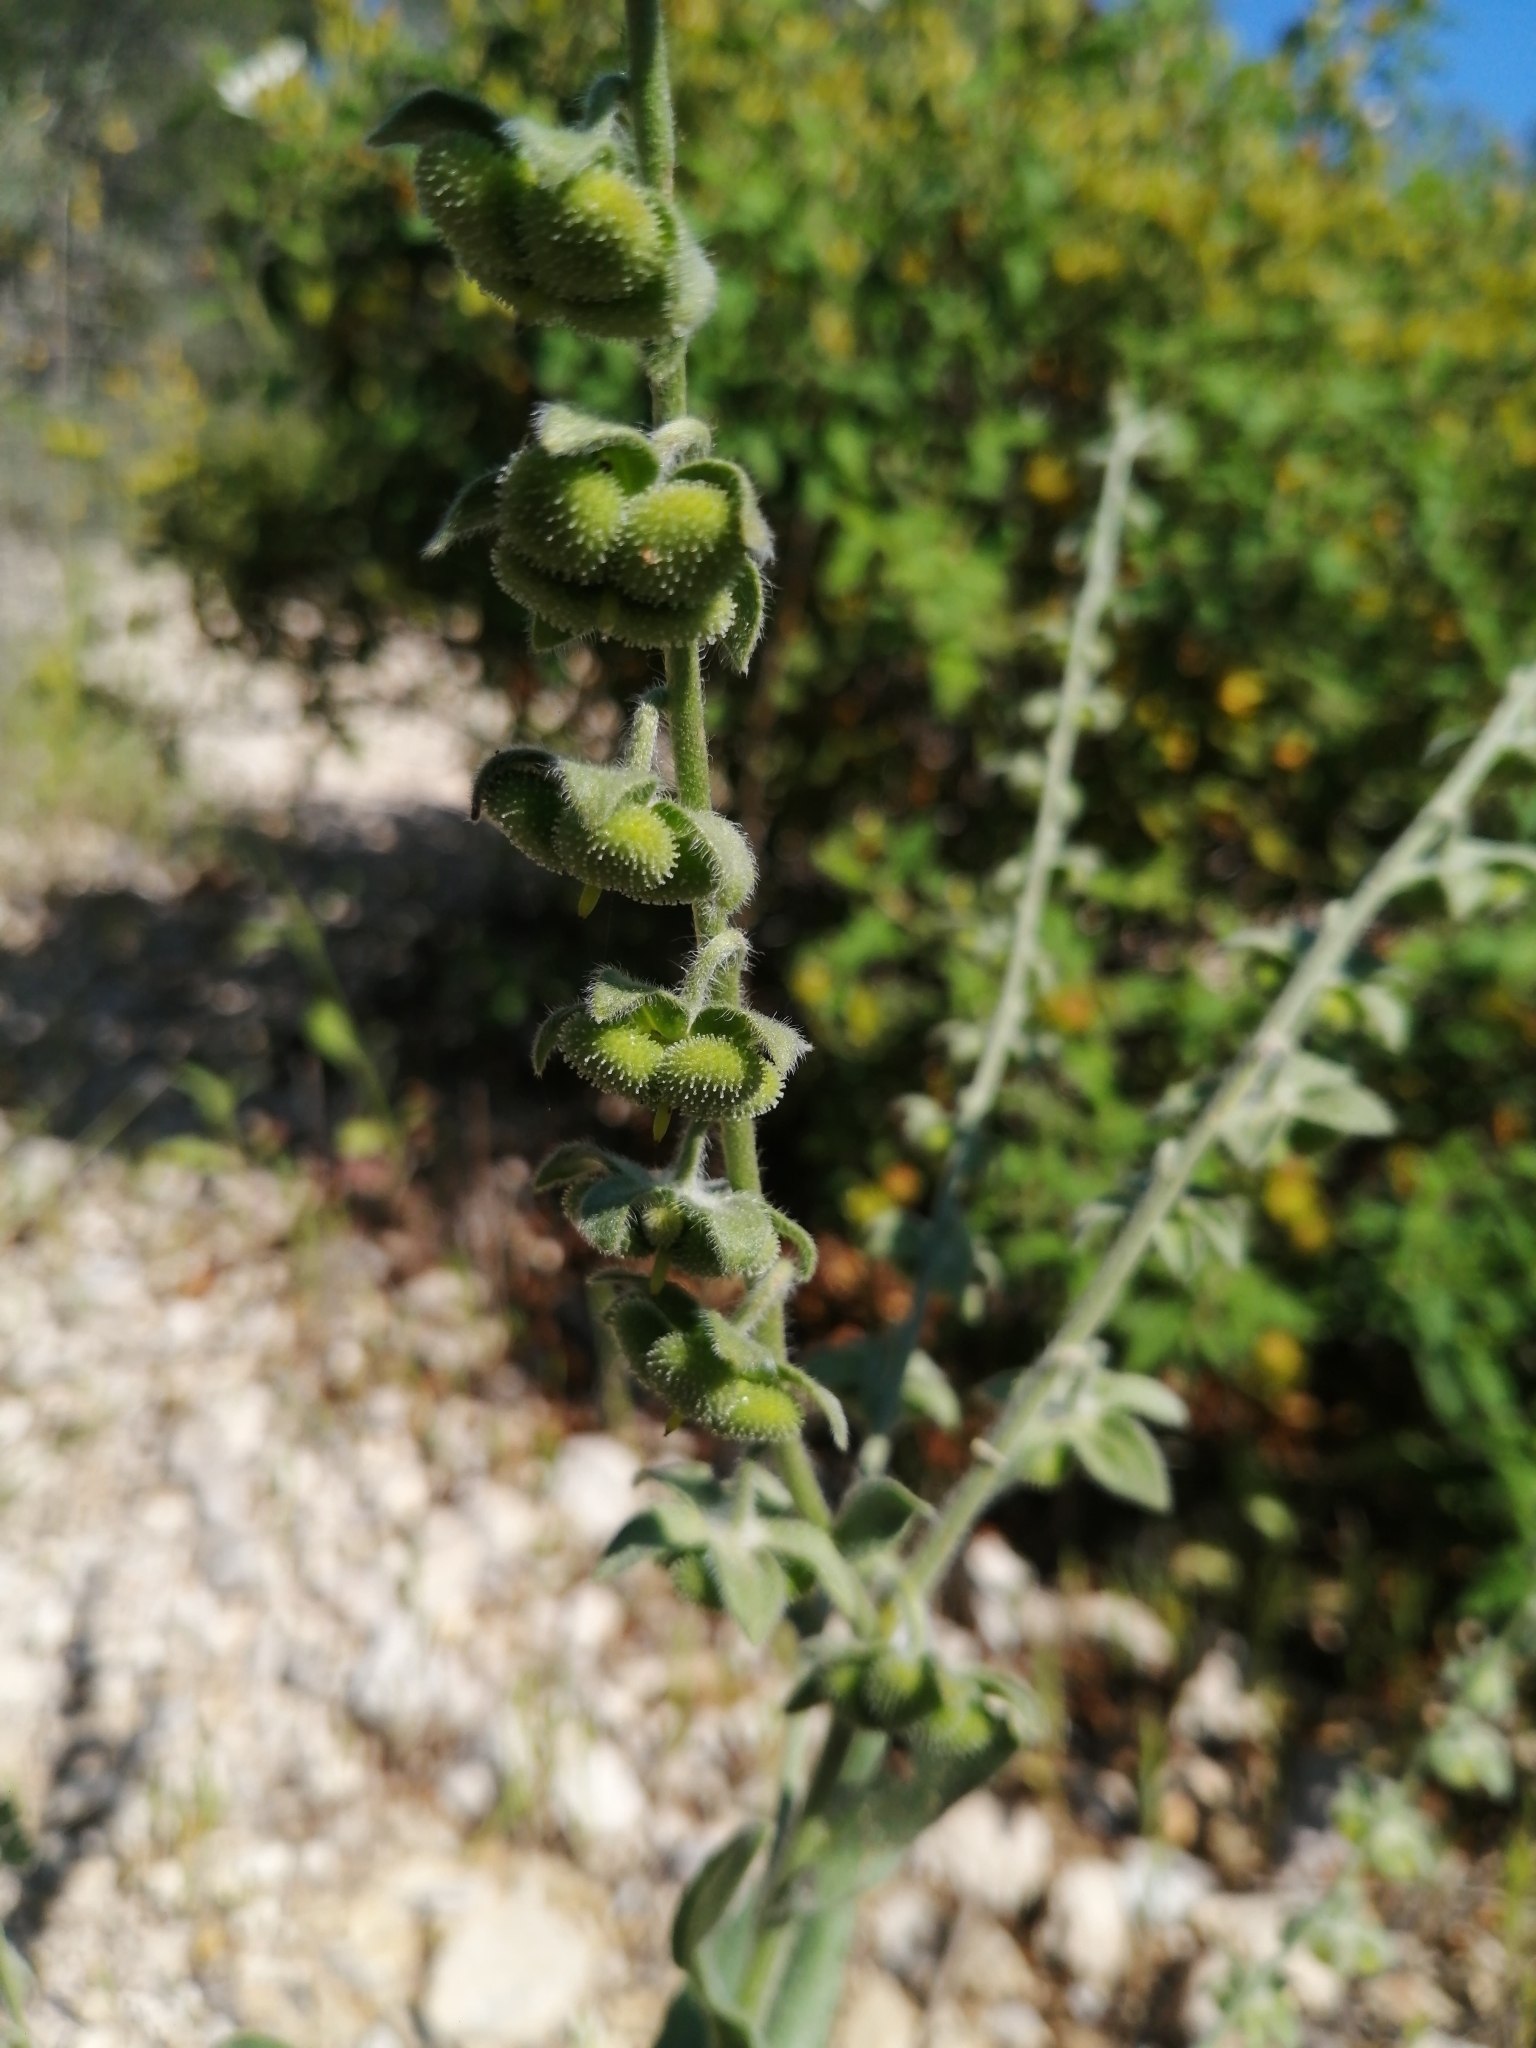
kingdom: Plantae
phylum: Tracheophyta
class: Magnoliopsida
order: Boraginales
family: Boraginaceae
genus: Cynoglossum
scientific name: Cynoglossum creticum
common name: Blue hound's tongue
